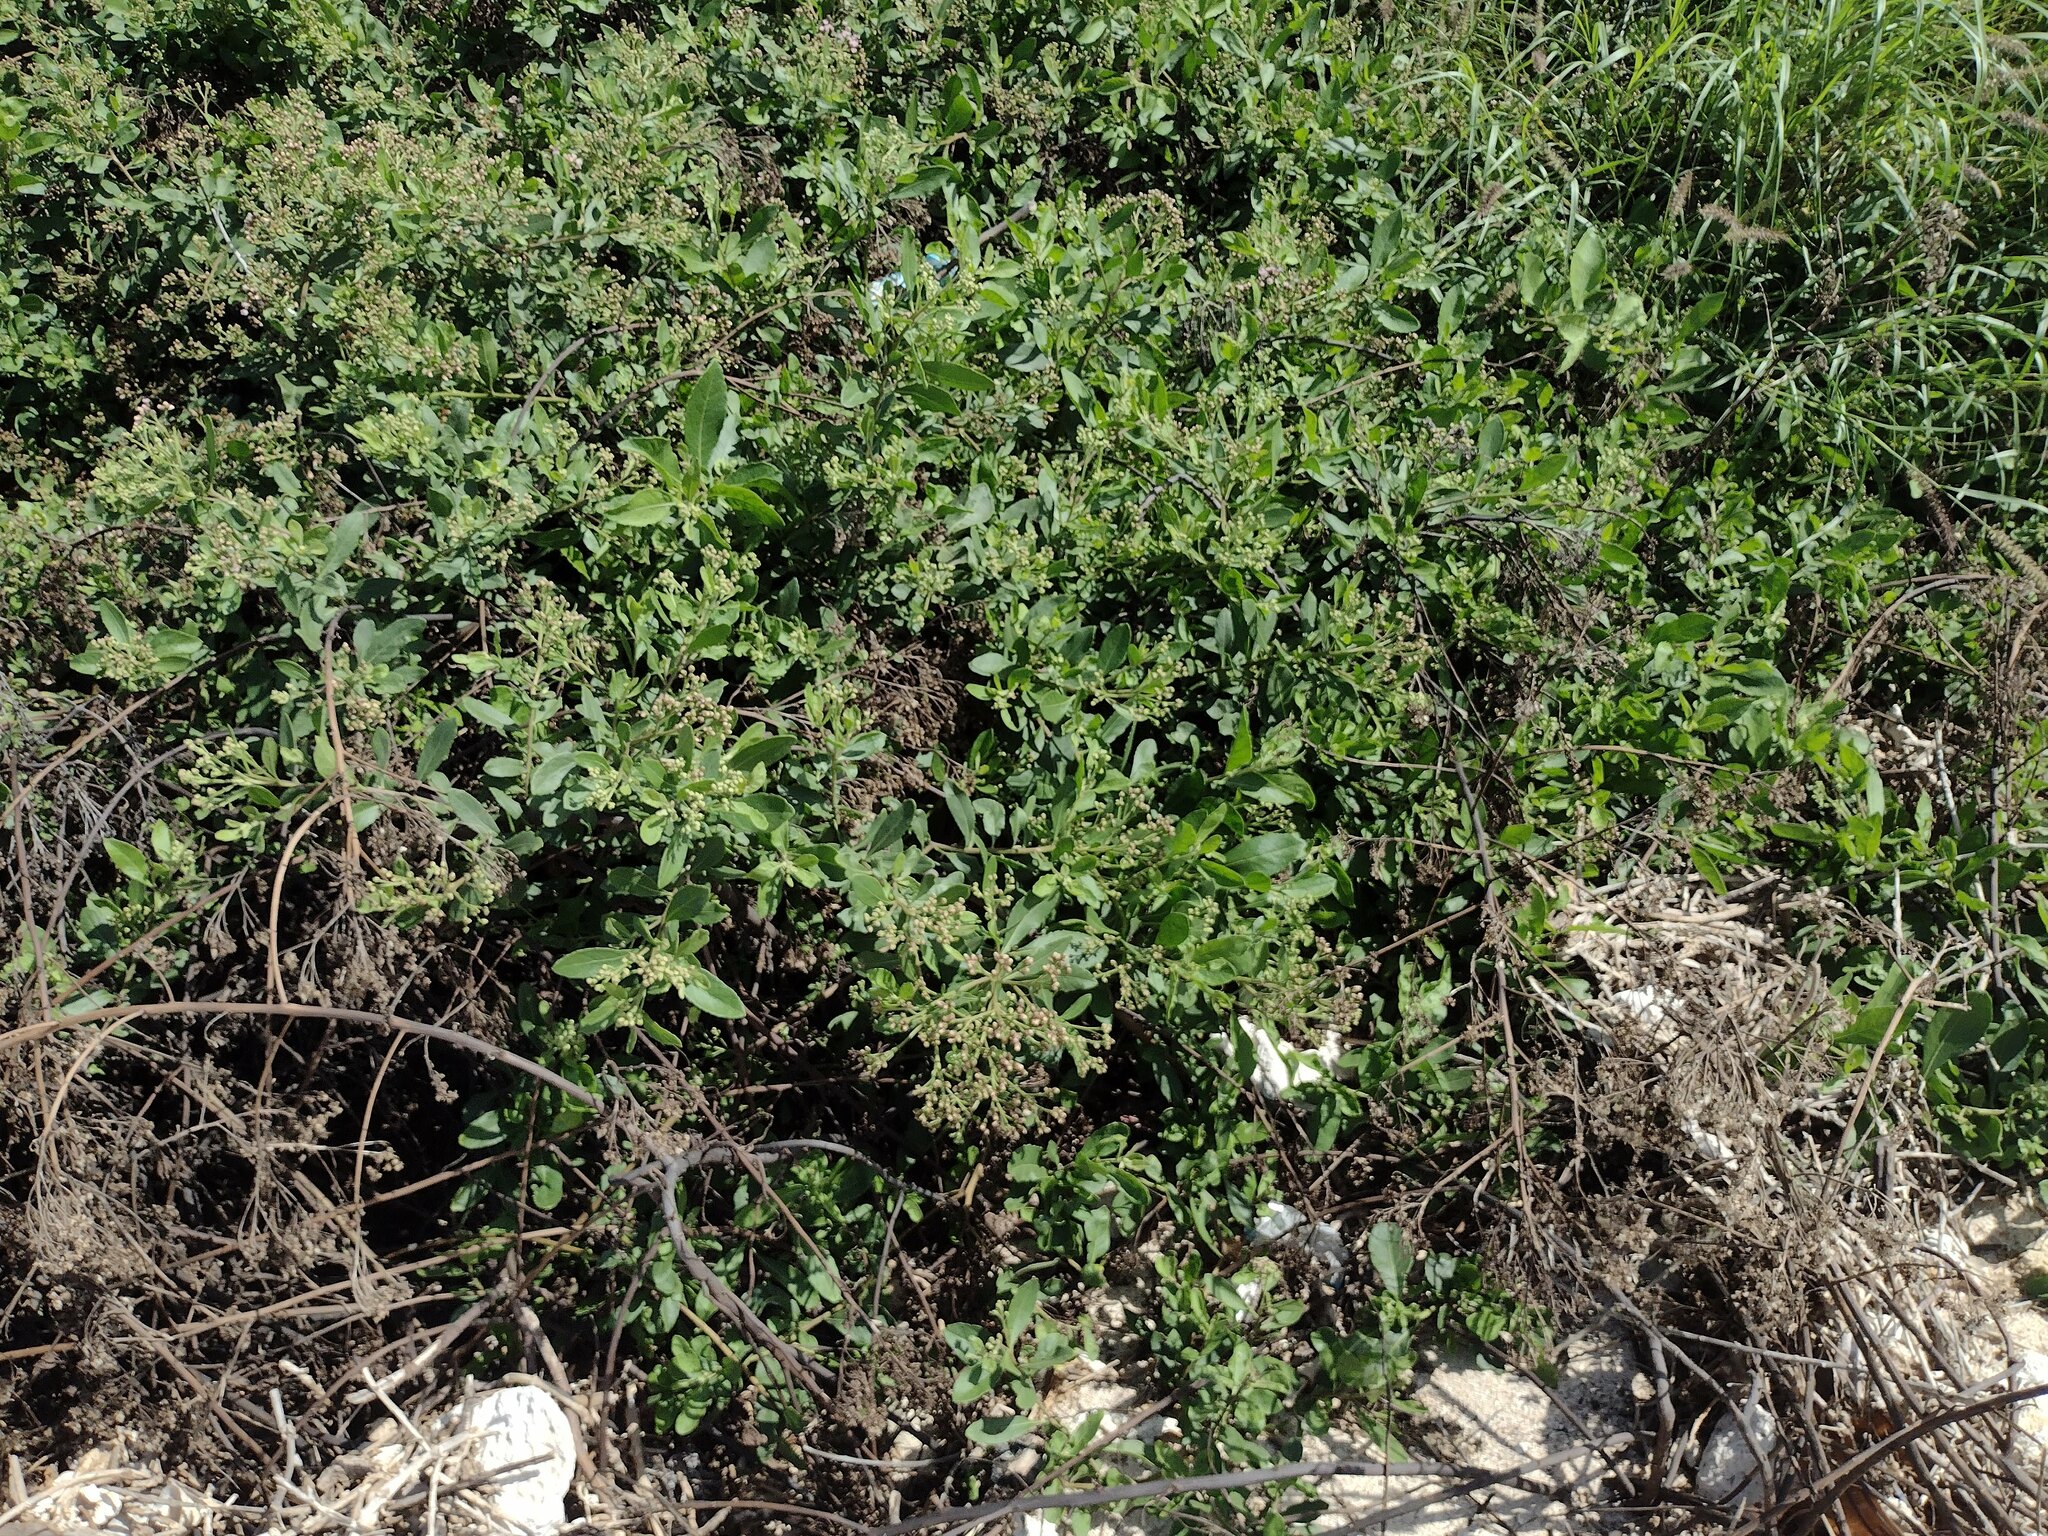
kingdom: Plantae
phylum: Tracheophyta
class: Magnoliopsida
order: Asterales
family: Asteraceae
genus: Pluchea
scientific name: Pluchea fosbergii
